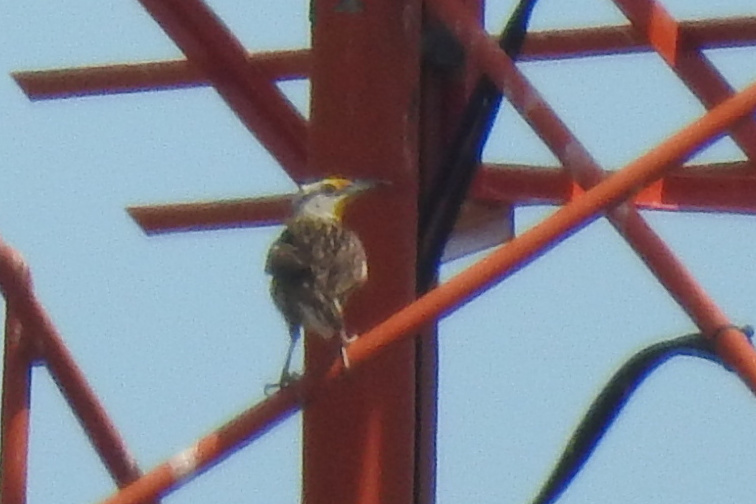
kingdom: Animalia
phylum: Chordata
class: Aves
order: Passeriformes
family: Icteridae
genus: Sturnella
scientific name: Sturnella magna
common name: Eastern meadowlark
